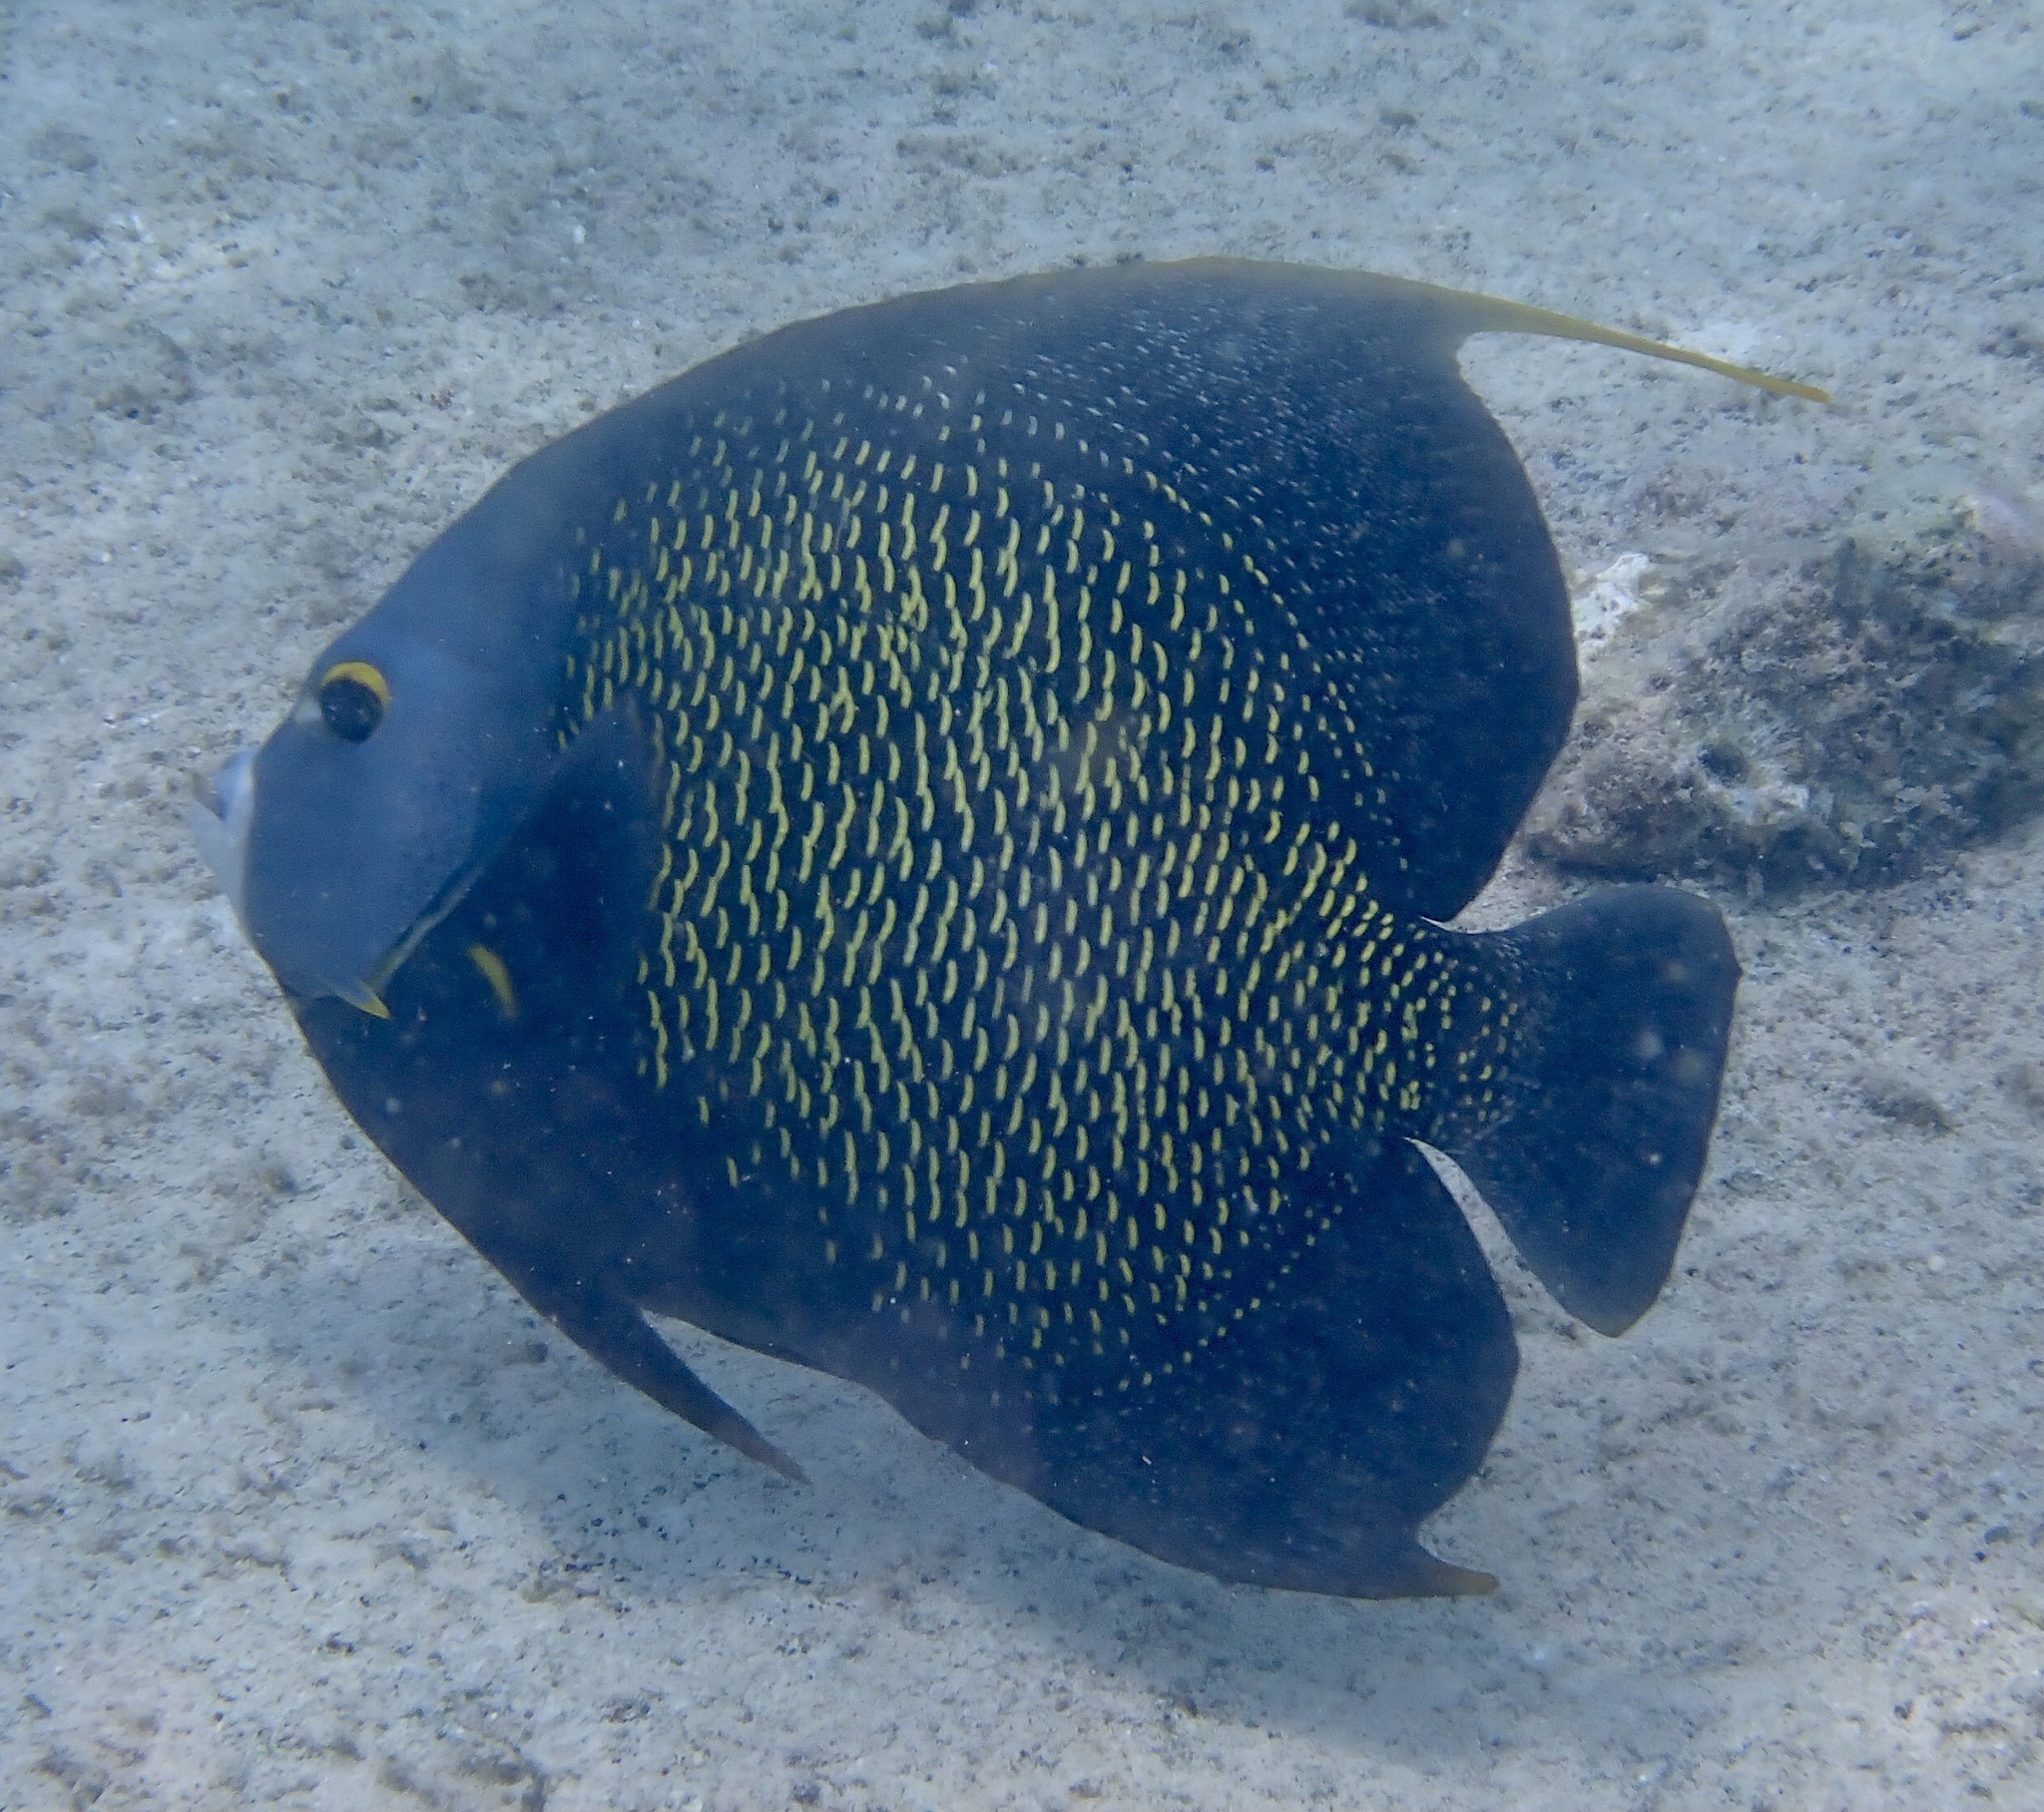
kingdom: Animalia
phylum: Chordata
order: Perciformes
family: Pomacanthidae
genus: Pomacanthus
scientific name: Pomacanthus paru
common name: French angelfish
